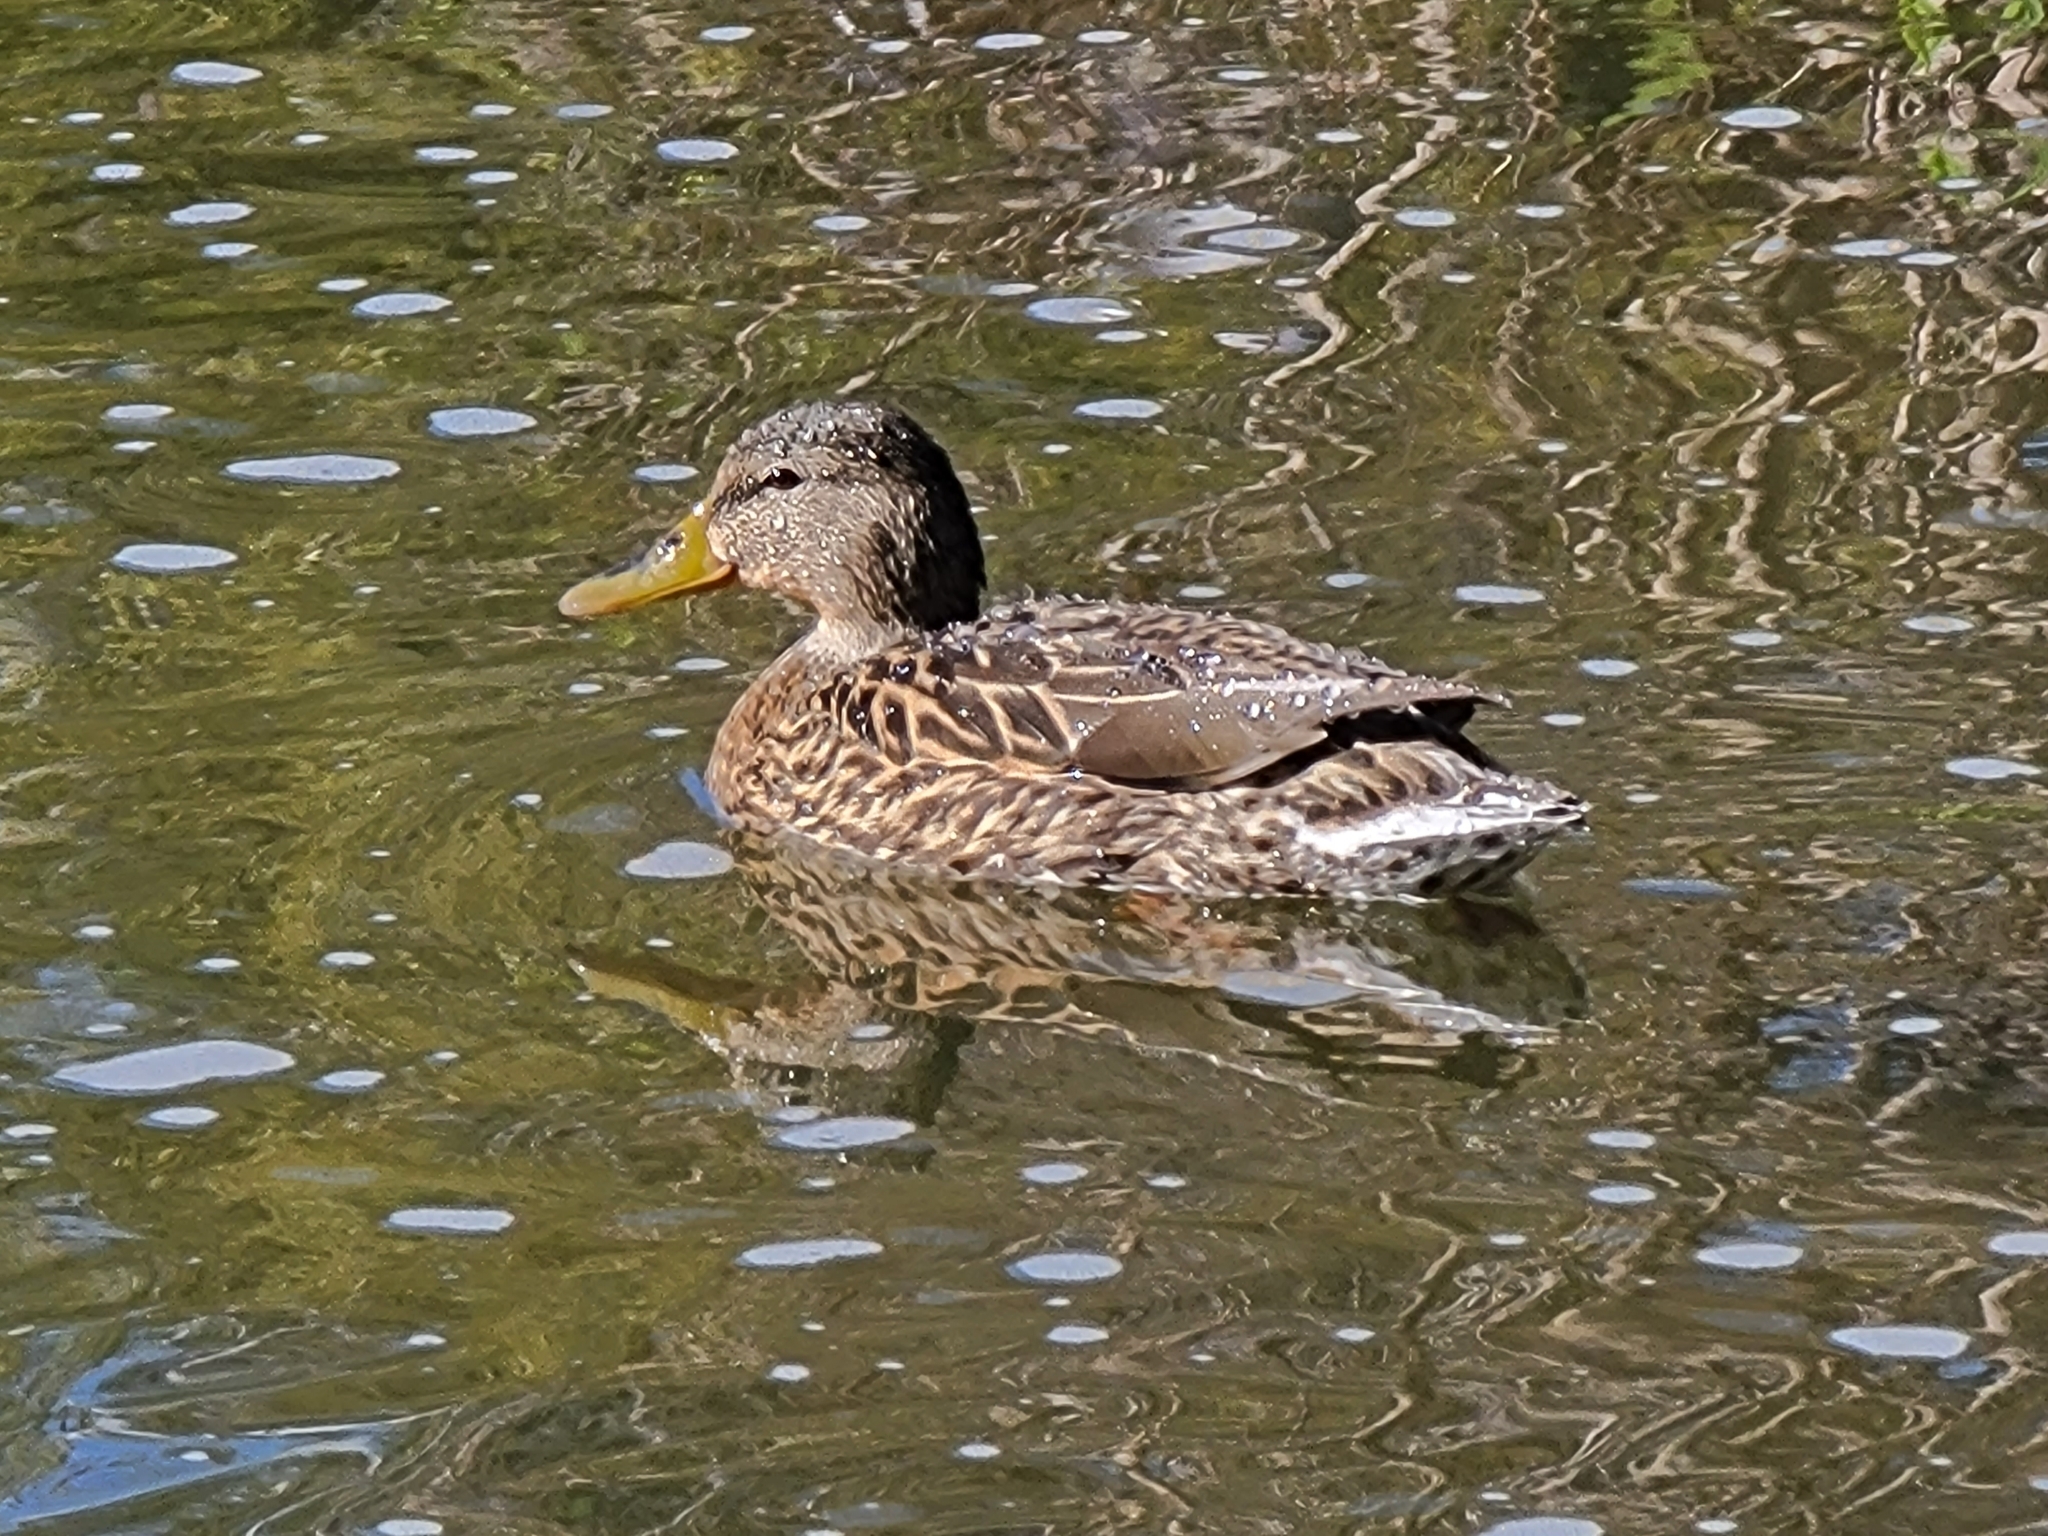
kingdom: Animalia
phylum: Chordata
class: Aves
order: Anseriformes
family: Anatidae
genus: Anas
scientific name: Anas platyrhynchos
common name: Mallard
